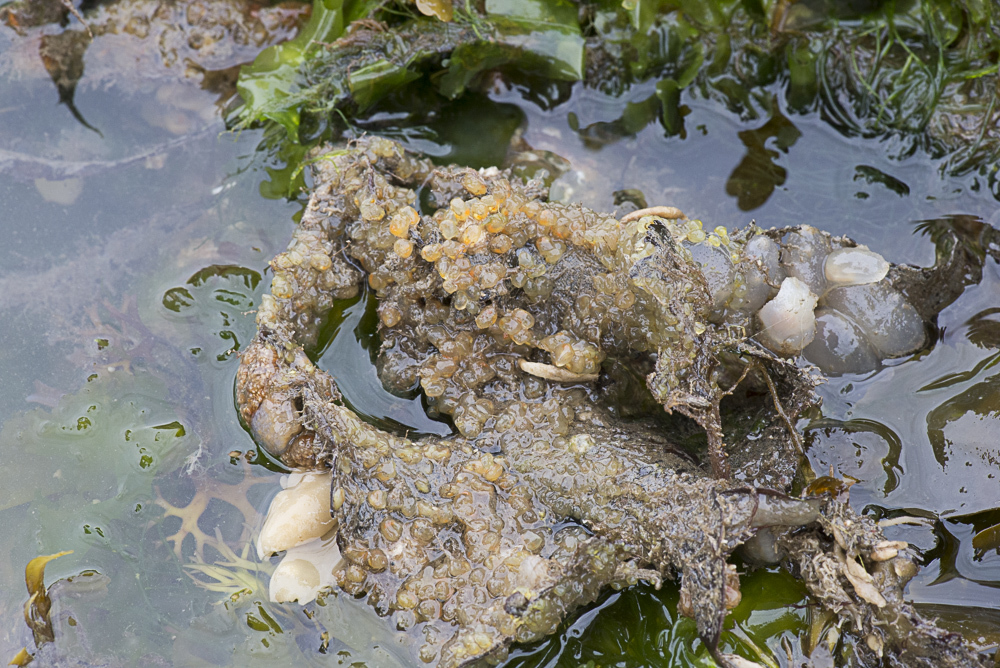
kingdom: Animalia
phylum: Chordata
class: Ascidiacea
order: Phlebobranchia
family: Perophoridae
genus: Perophora
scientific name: Perophora japonica
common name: Colonial sea squirt
